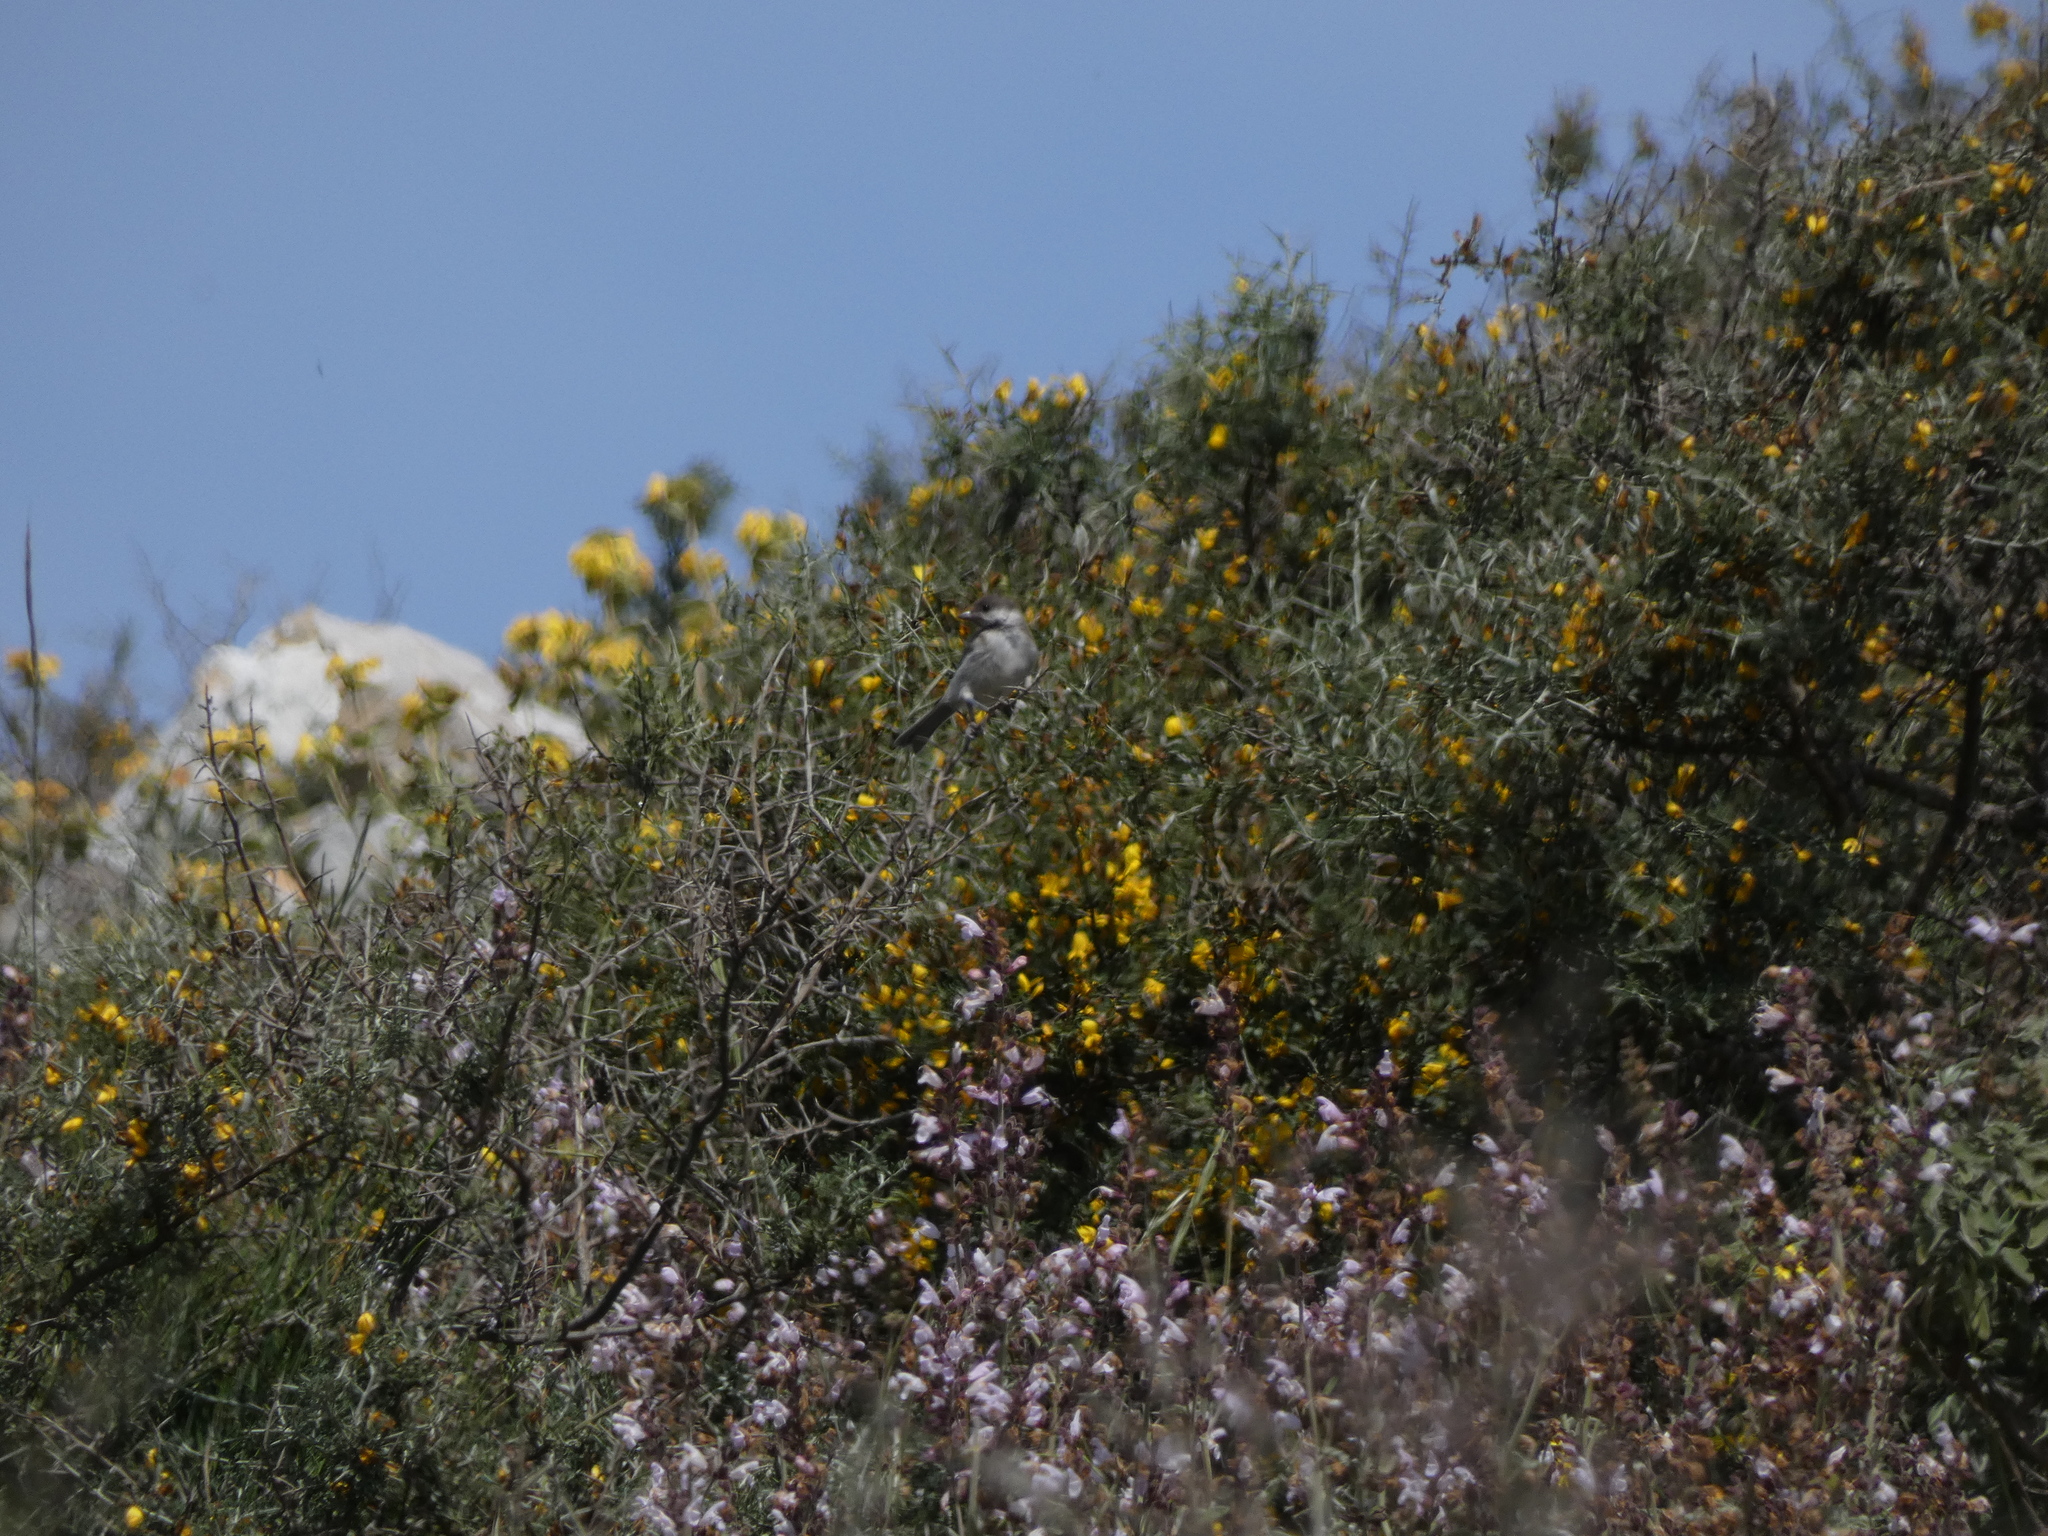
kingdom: Animalia
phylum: Chordata
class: Aves
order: Passeriformes
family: Paridae
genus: Poecile
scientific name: Poecile lugubris
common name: Sombre tit
